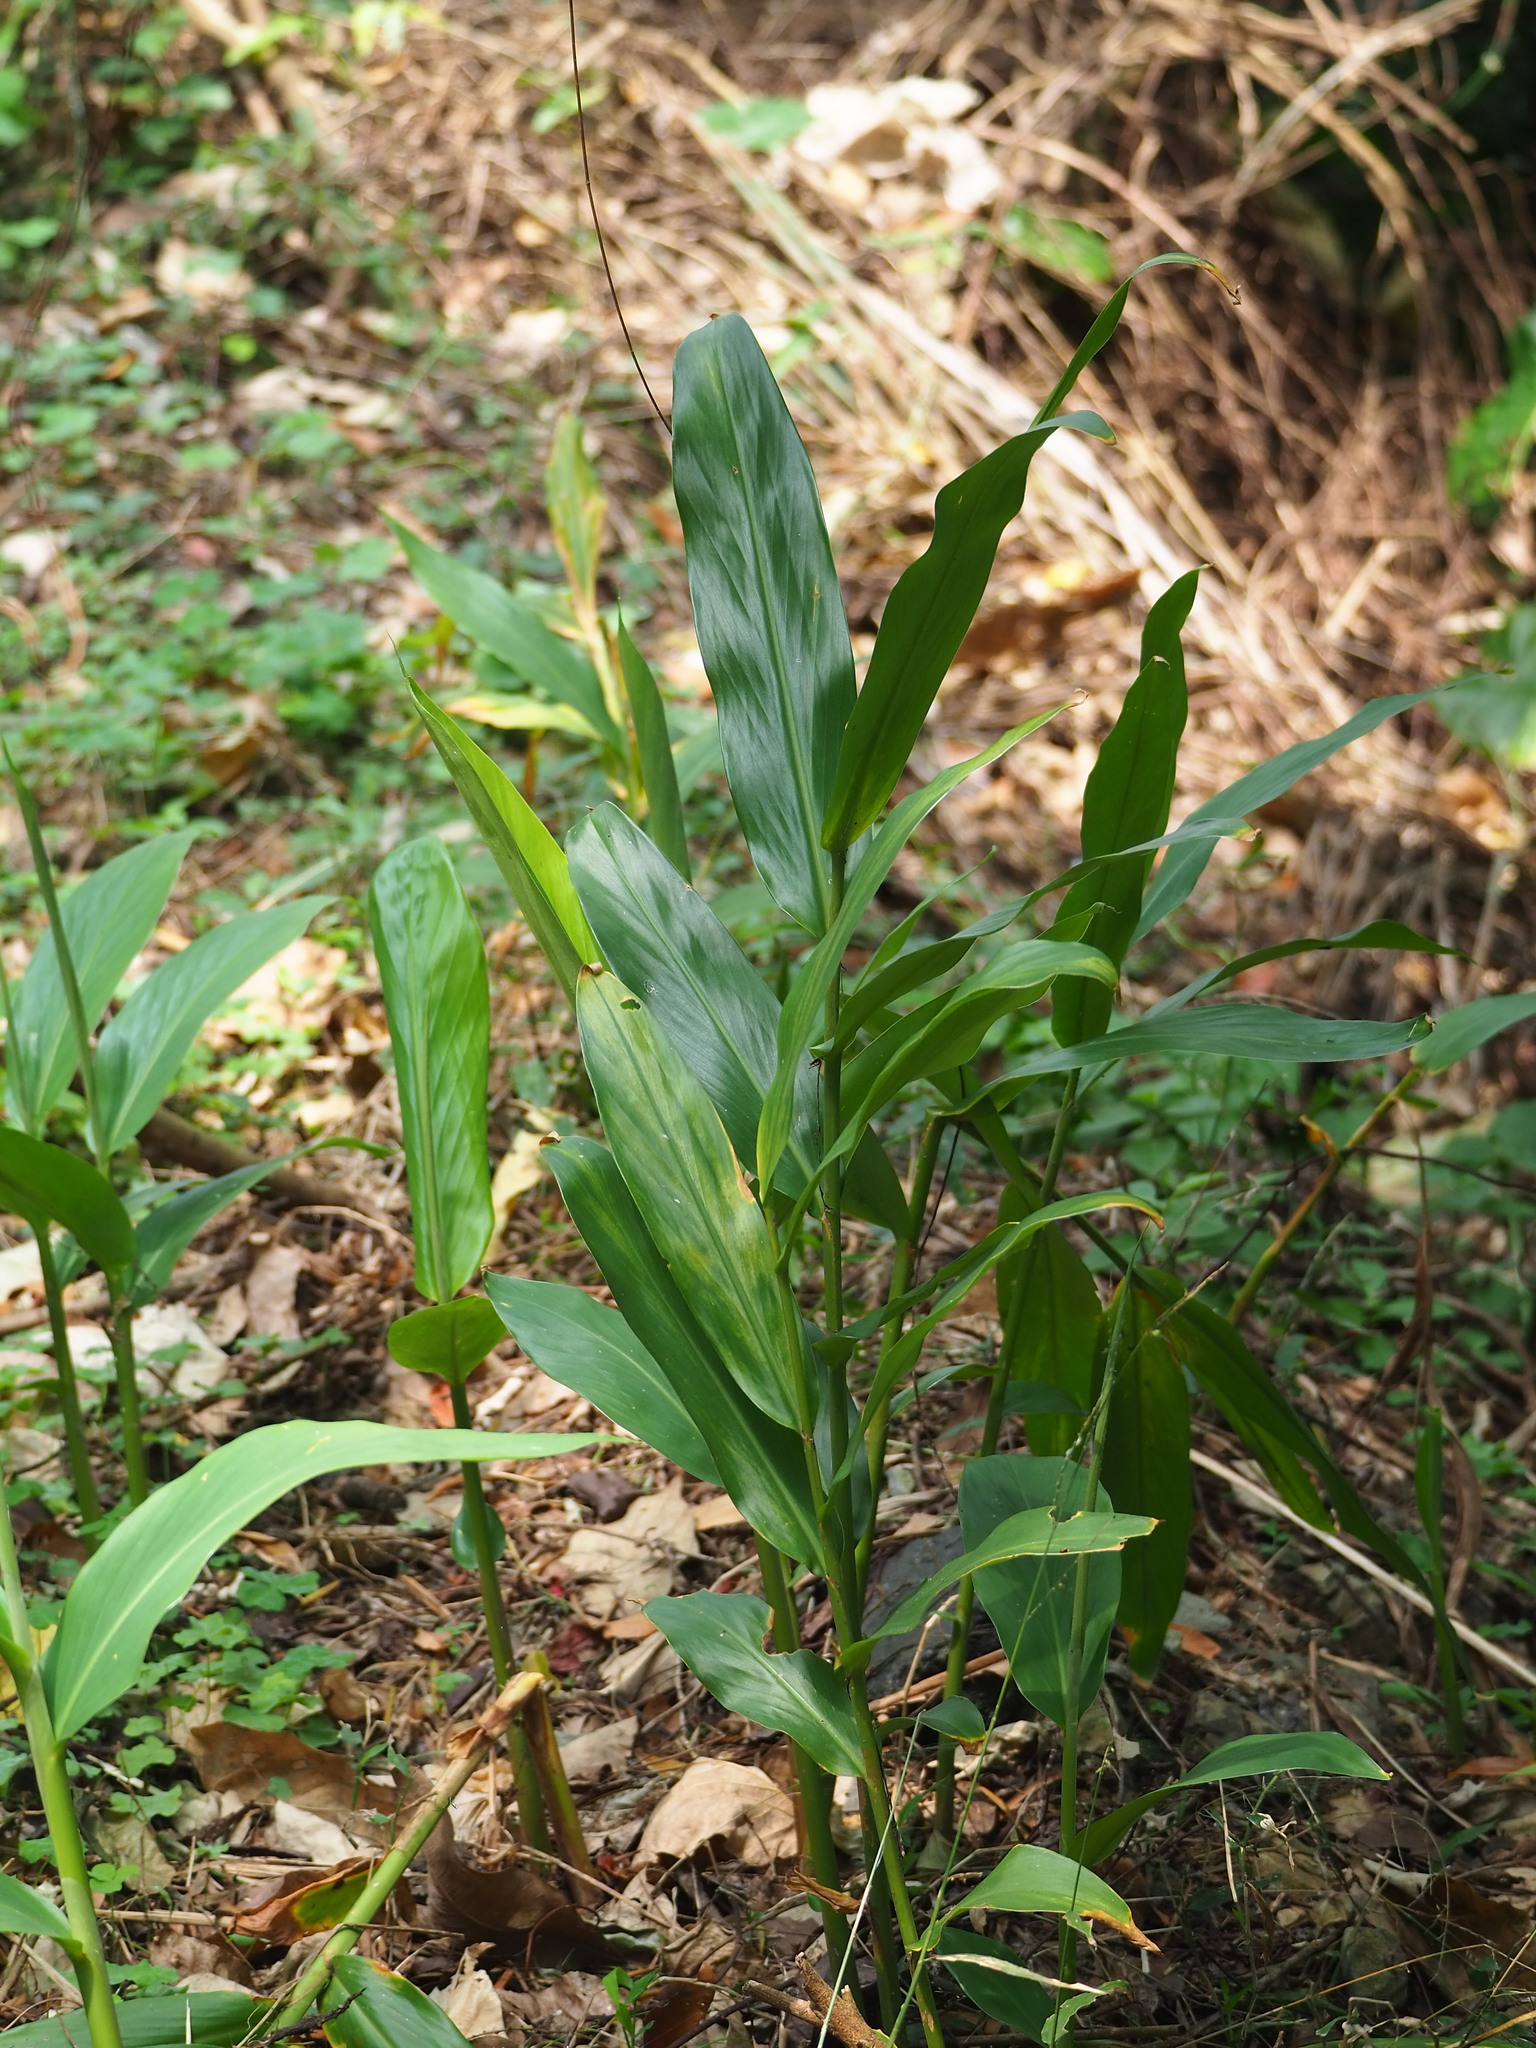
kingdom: Plantae
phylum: Tracheophyta
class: Liliopsida
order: Zingiberales
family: Zingiberaceae
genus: Hedychium
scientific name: Hedychium coronarium
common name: White garland-lily
